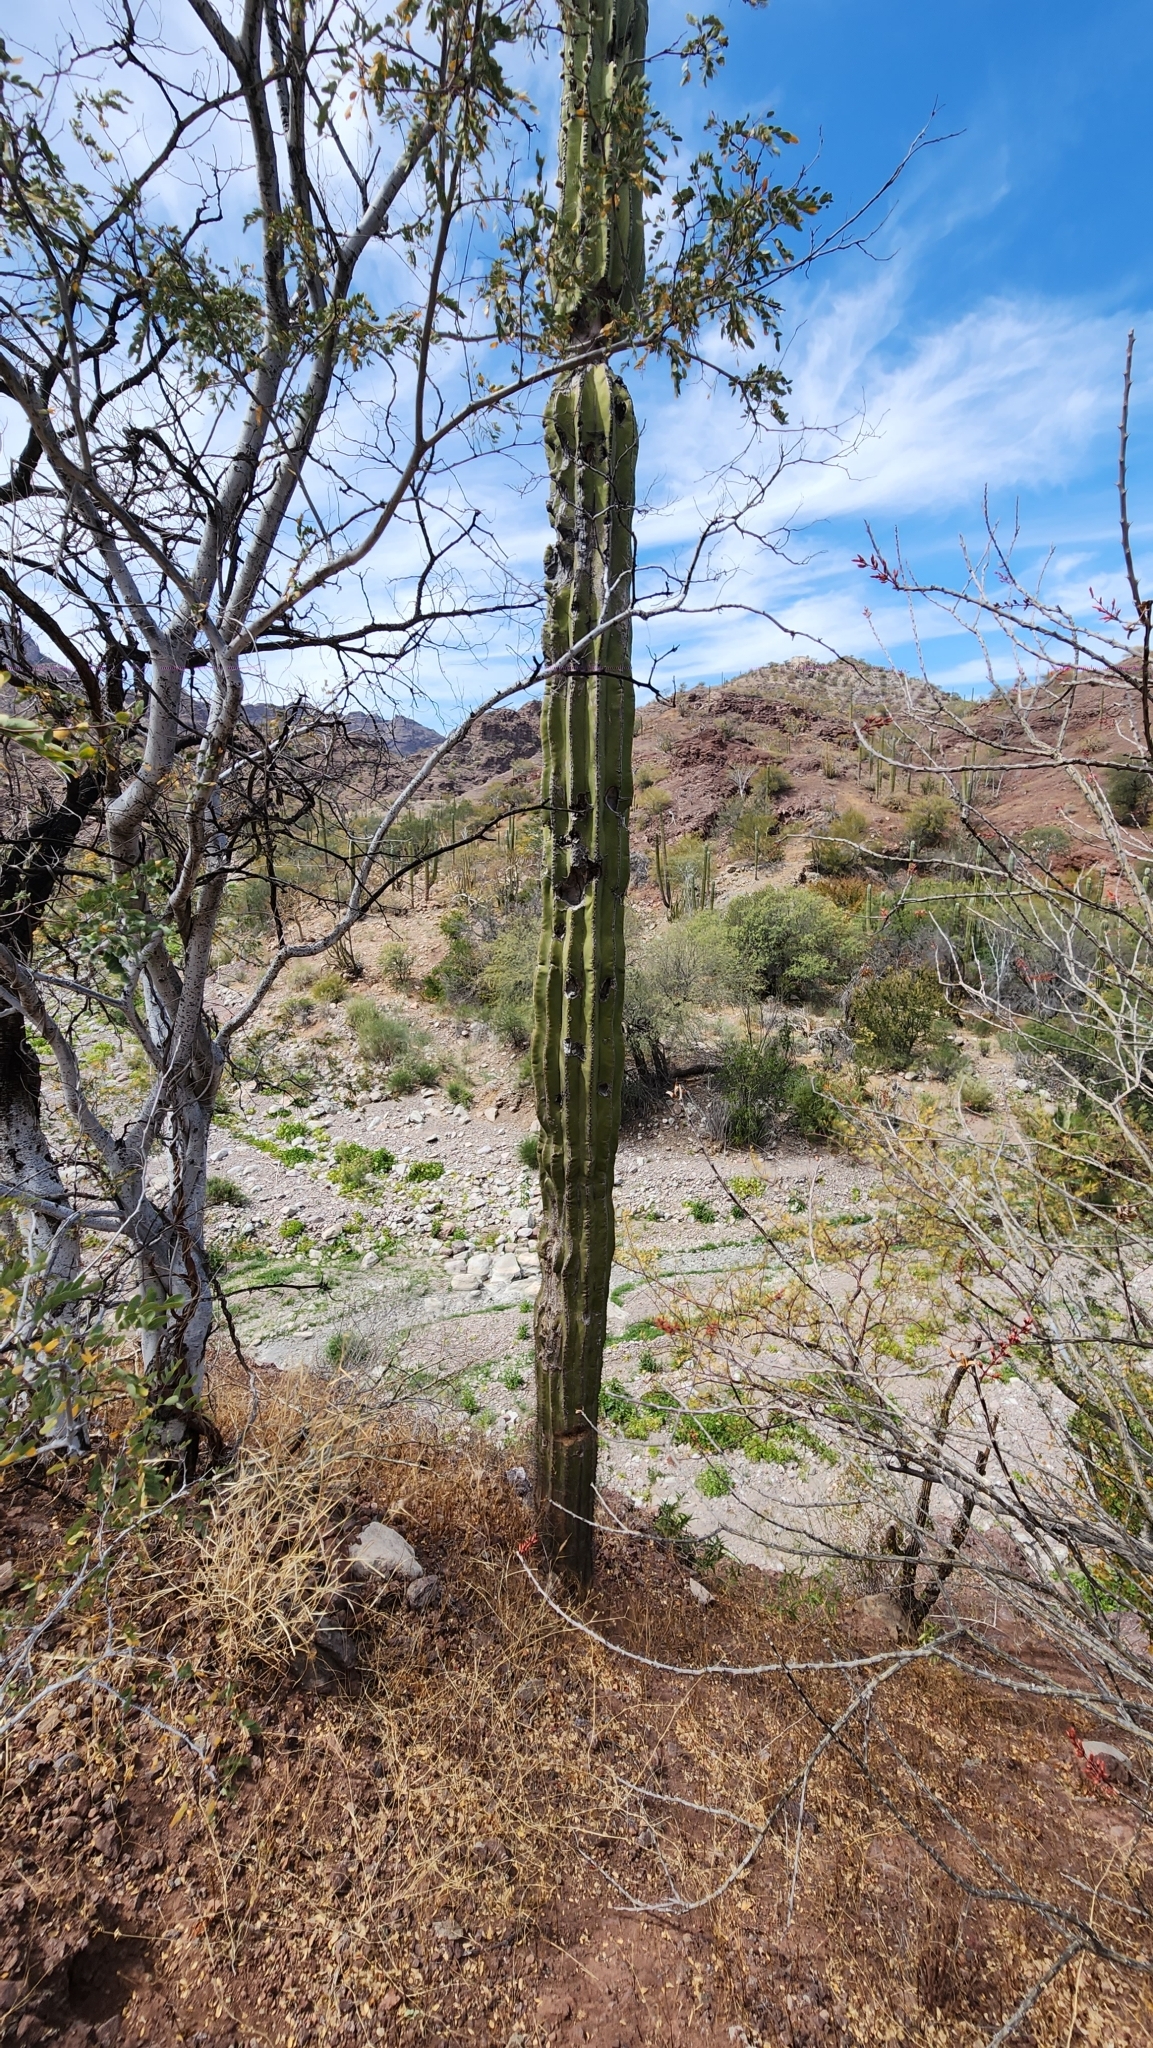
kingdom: Plantae
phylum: Tracheophyta
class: Magnoliopsida
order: Caryophyllales
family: Cactaceae
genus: Pachycereus
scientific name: Pachycereus pringlei
